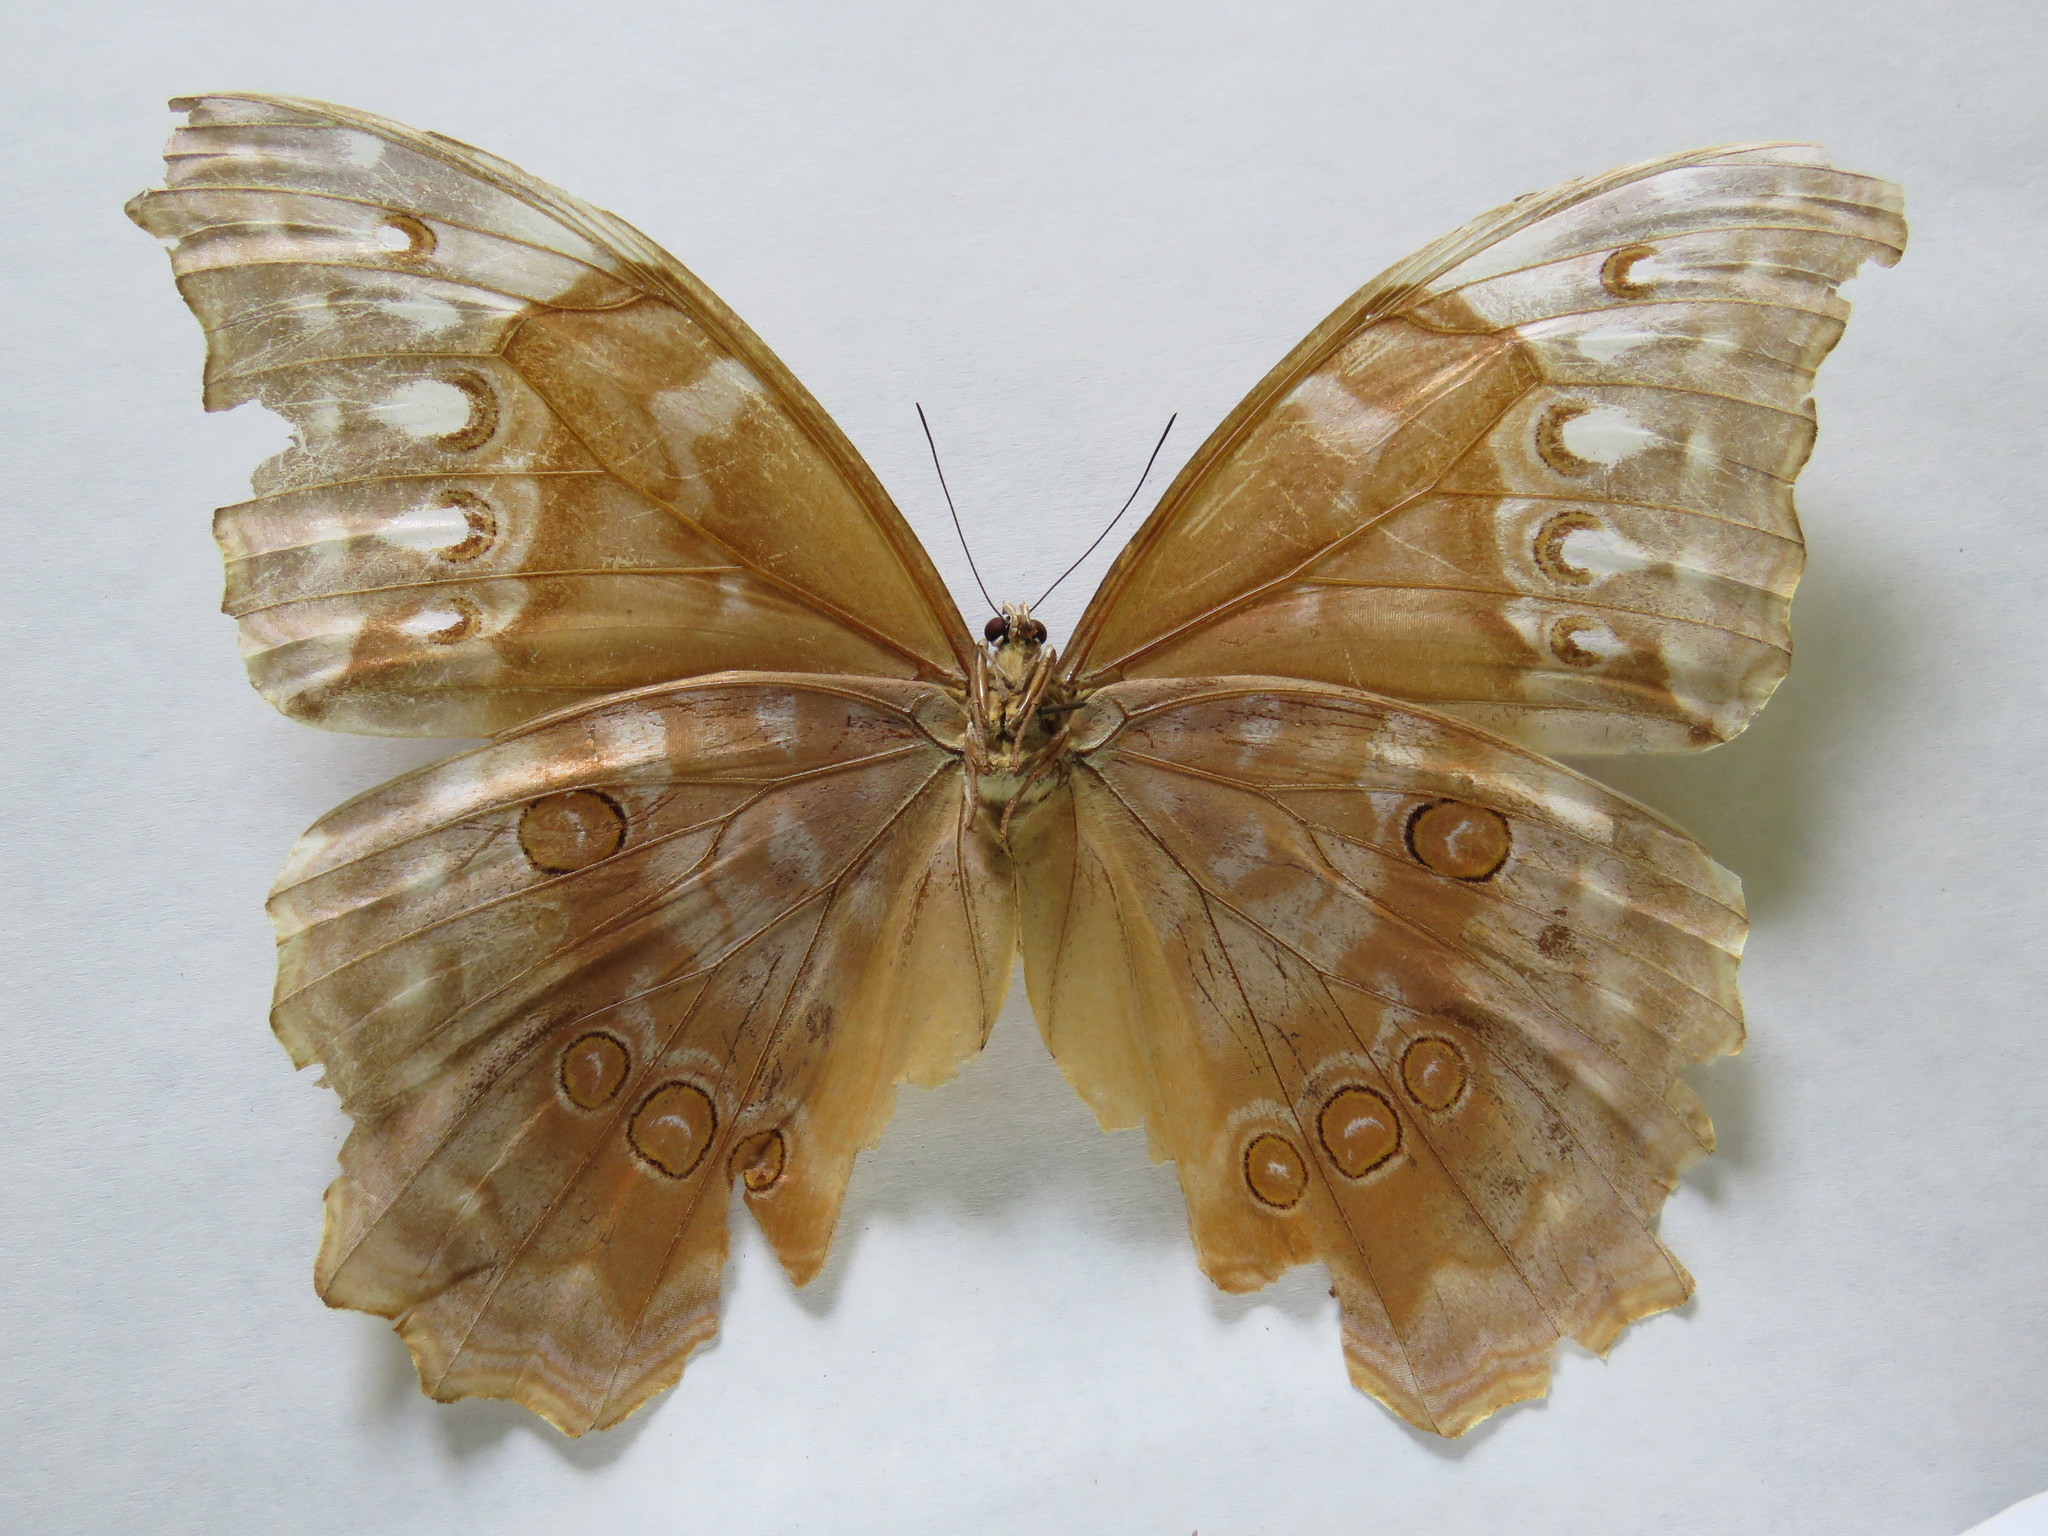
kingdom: Animalia
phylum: Arthropoda
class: Insecta
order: Lepidoptera
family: Nymphalidae
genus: Morpho
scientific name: Morpho amathonte
